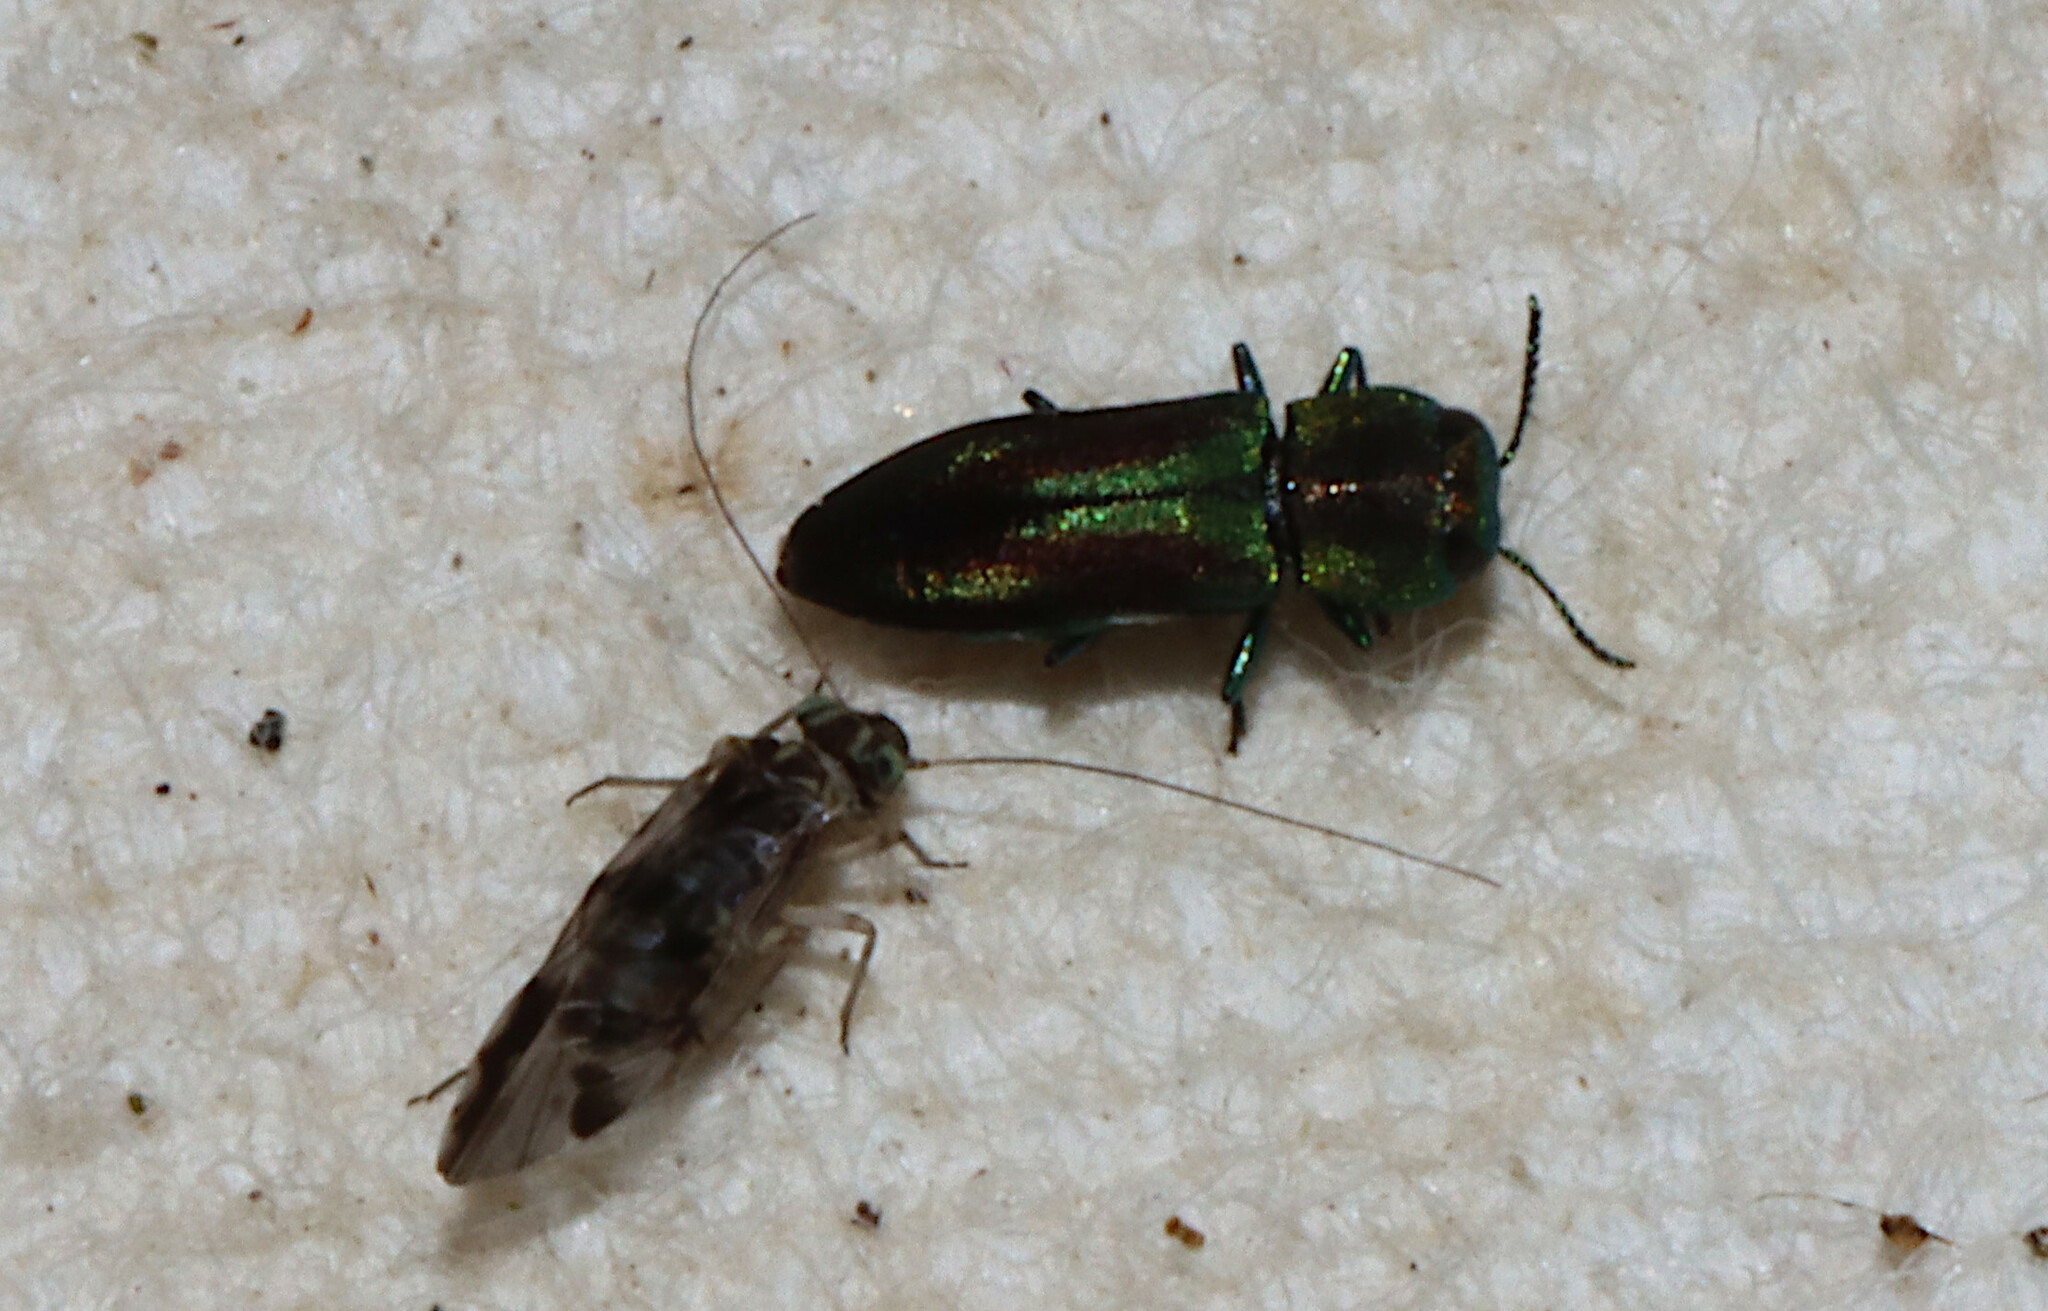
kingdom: Animalia
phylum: Arthropoda
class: Insecta
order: Coleoptera
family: Buprestidae
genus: Anthaxia
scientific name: Anthaxia quercata
